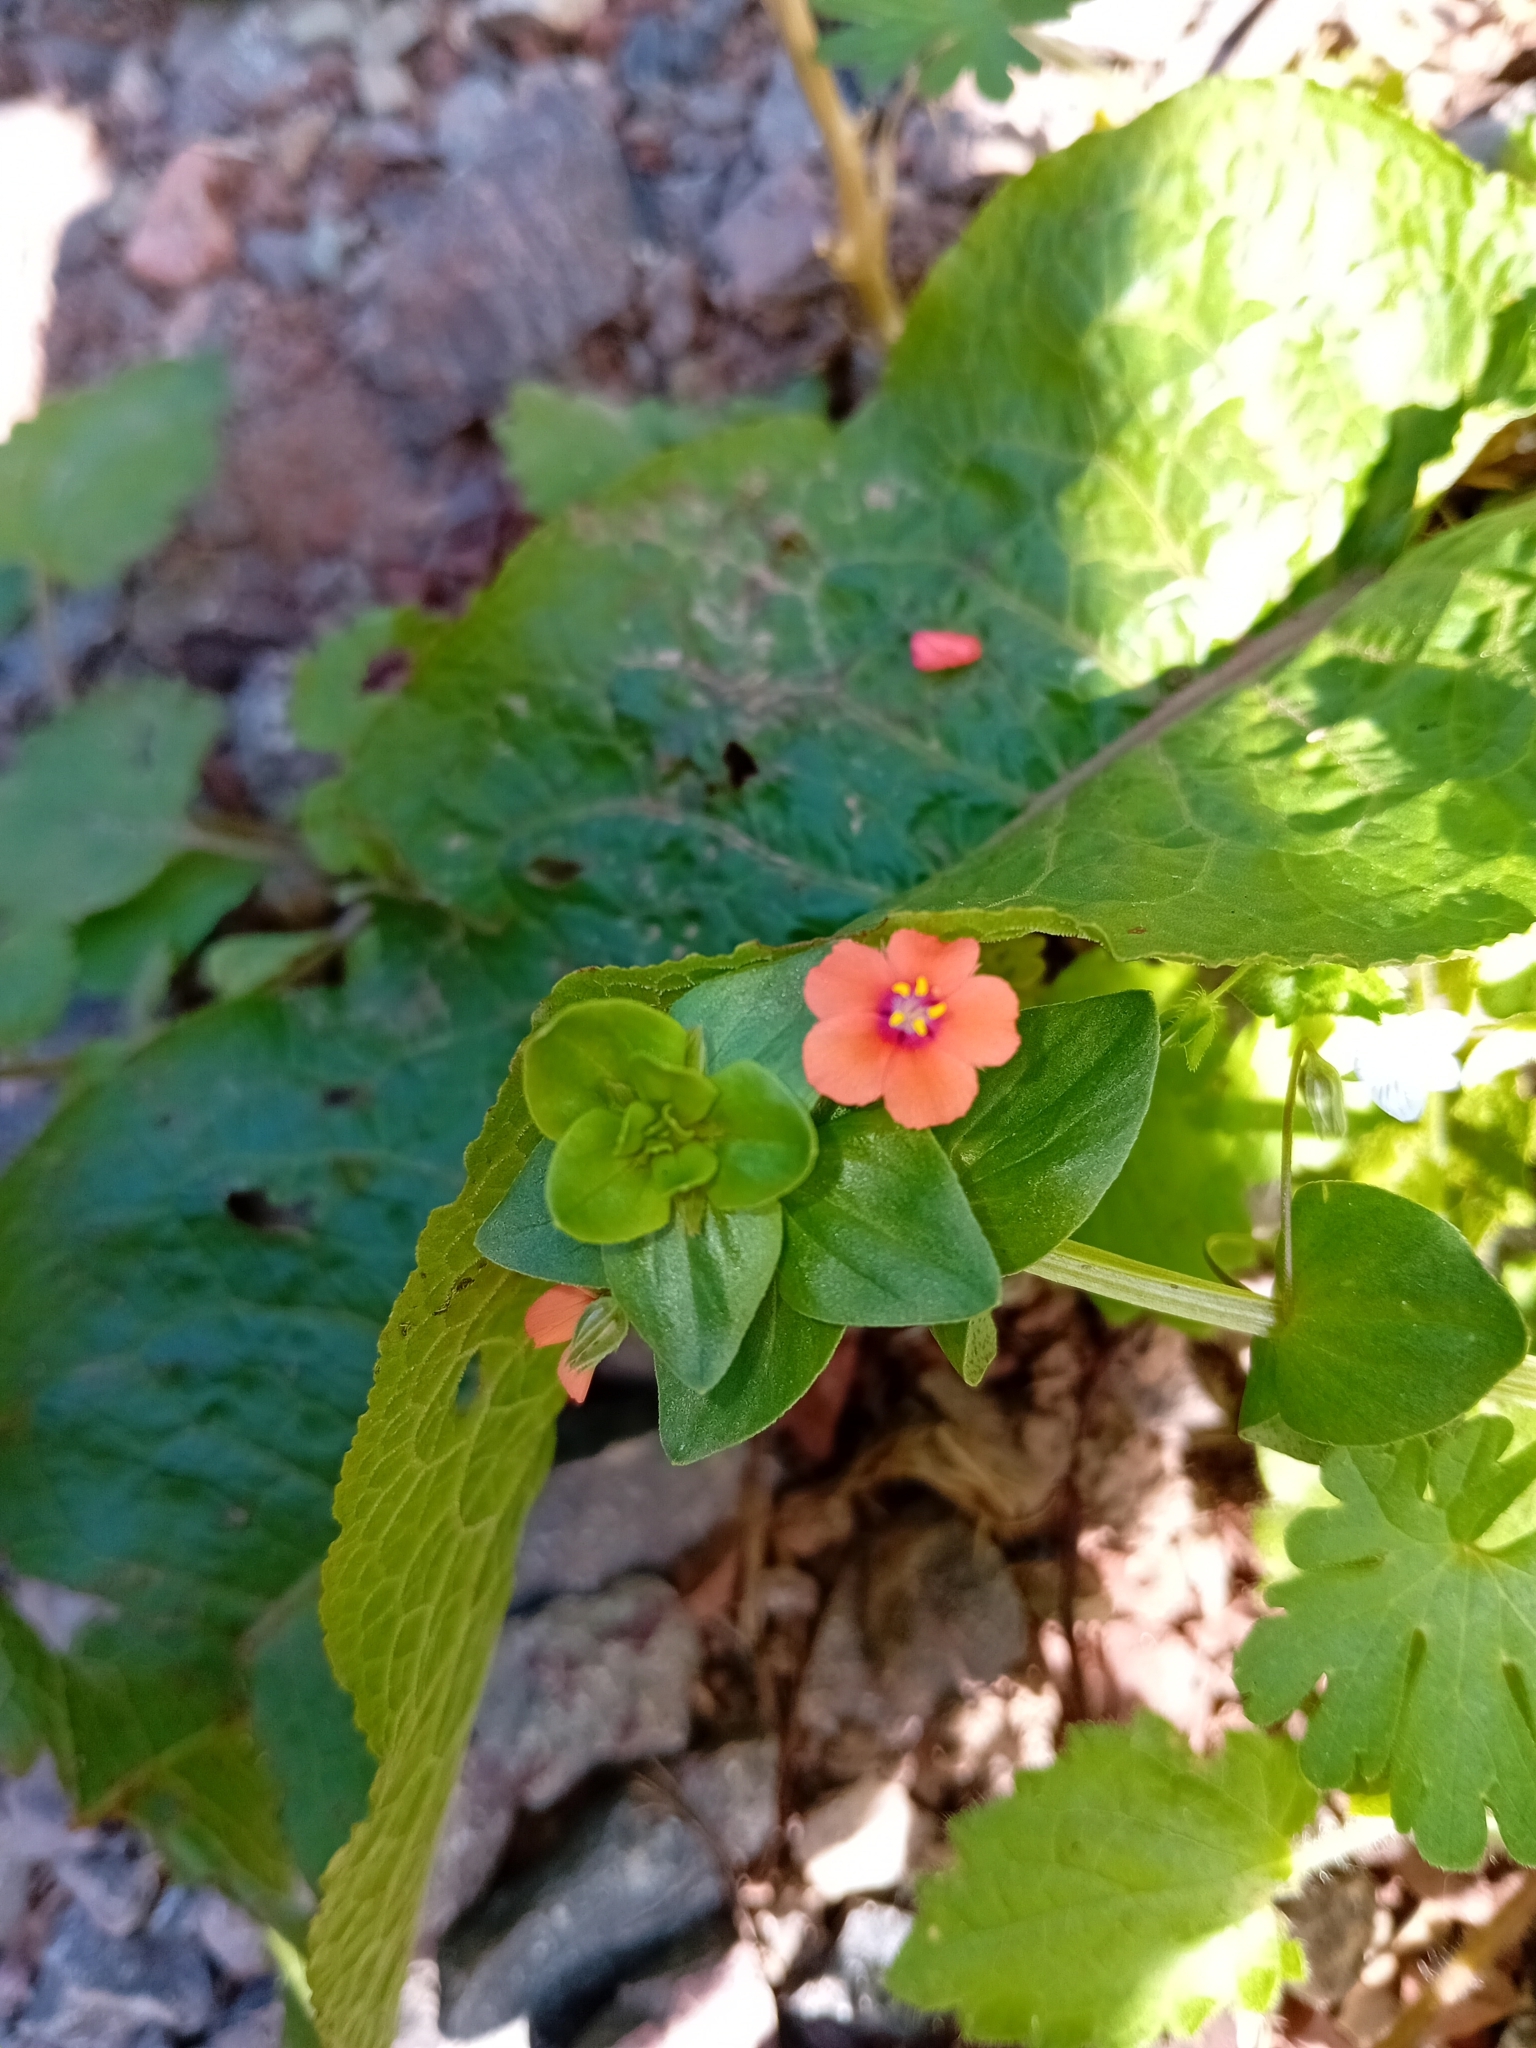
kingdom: Plantae
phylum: Tracheophyta
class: Magnoliopsida
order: Ericales
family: Primulaceae
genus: Lysimachia
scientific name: Lysimachia arvensis
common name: Scarlet pimpernel
